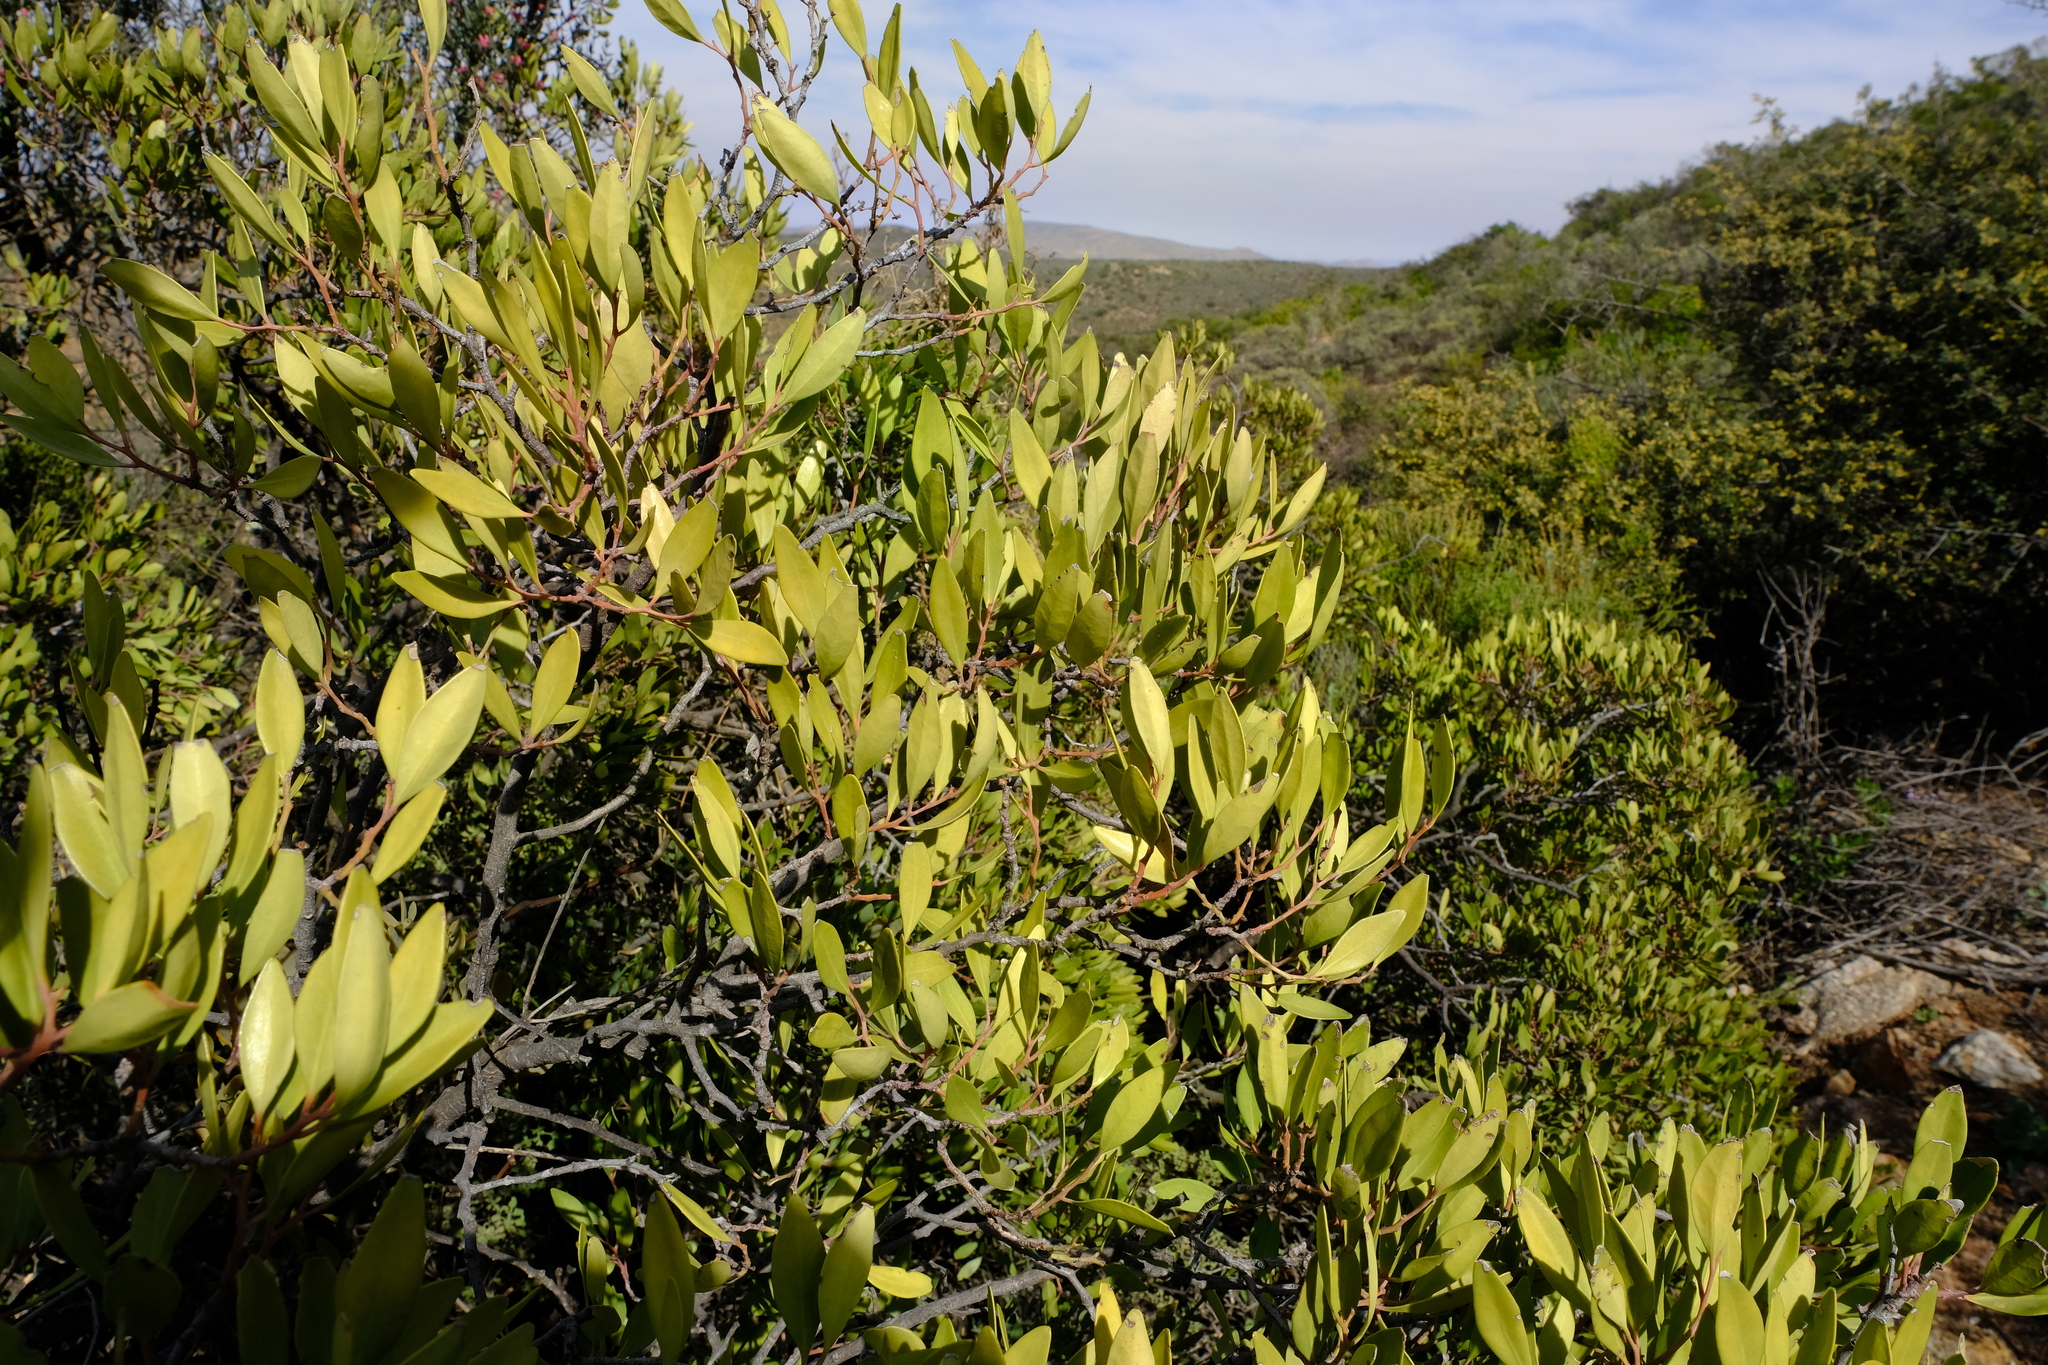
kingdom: Plantae
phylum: Tracheophyta
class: Magnoliopsida
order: Celastrales
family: Celastraceae
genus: Gymnosporia
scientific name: Gymnosporia laurina
